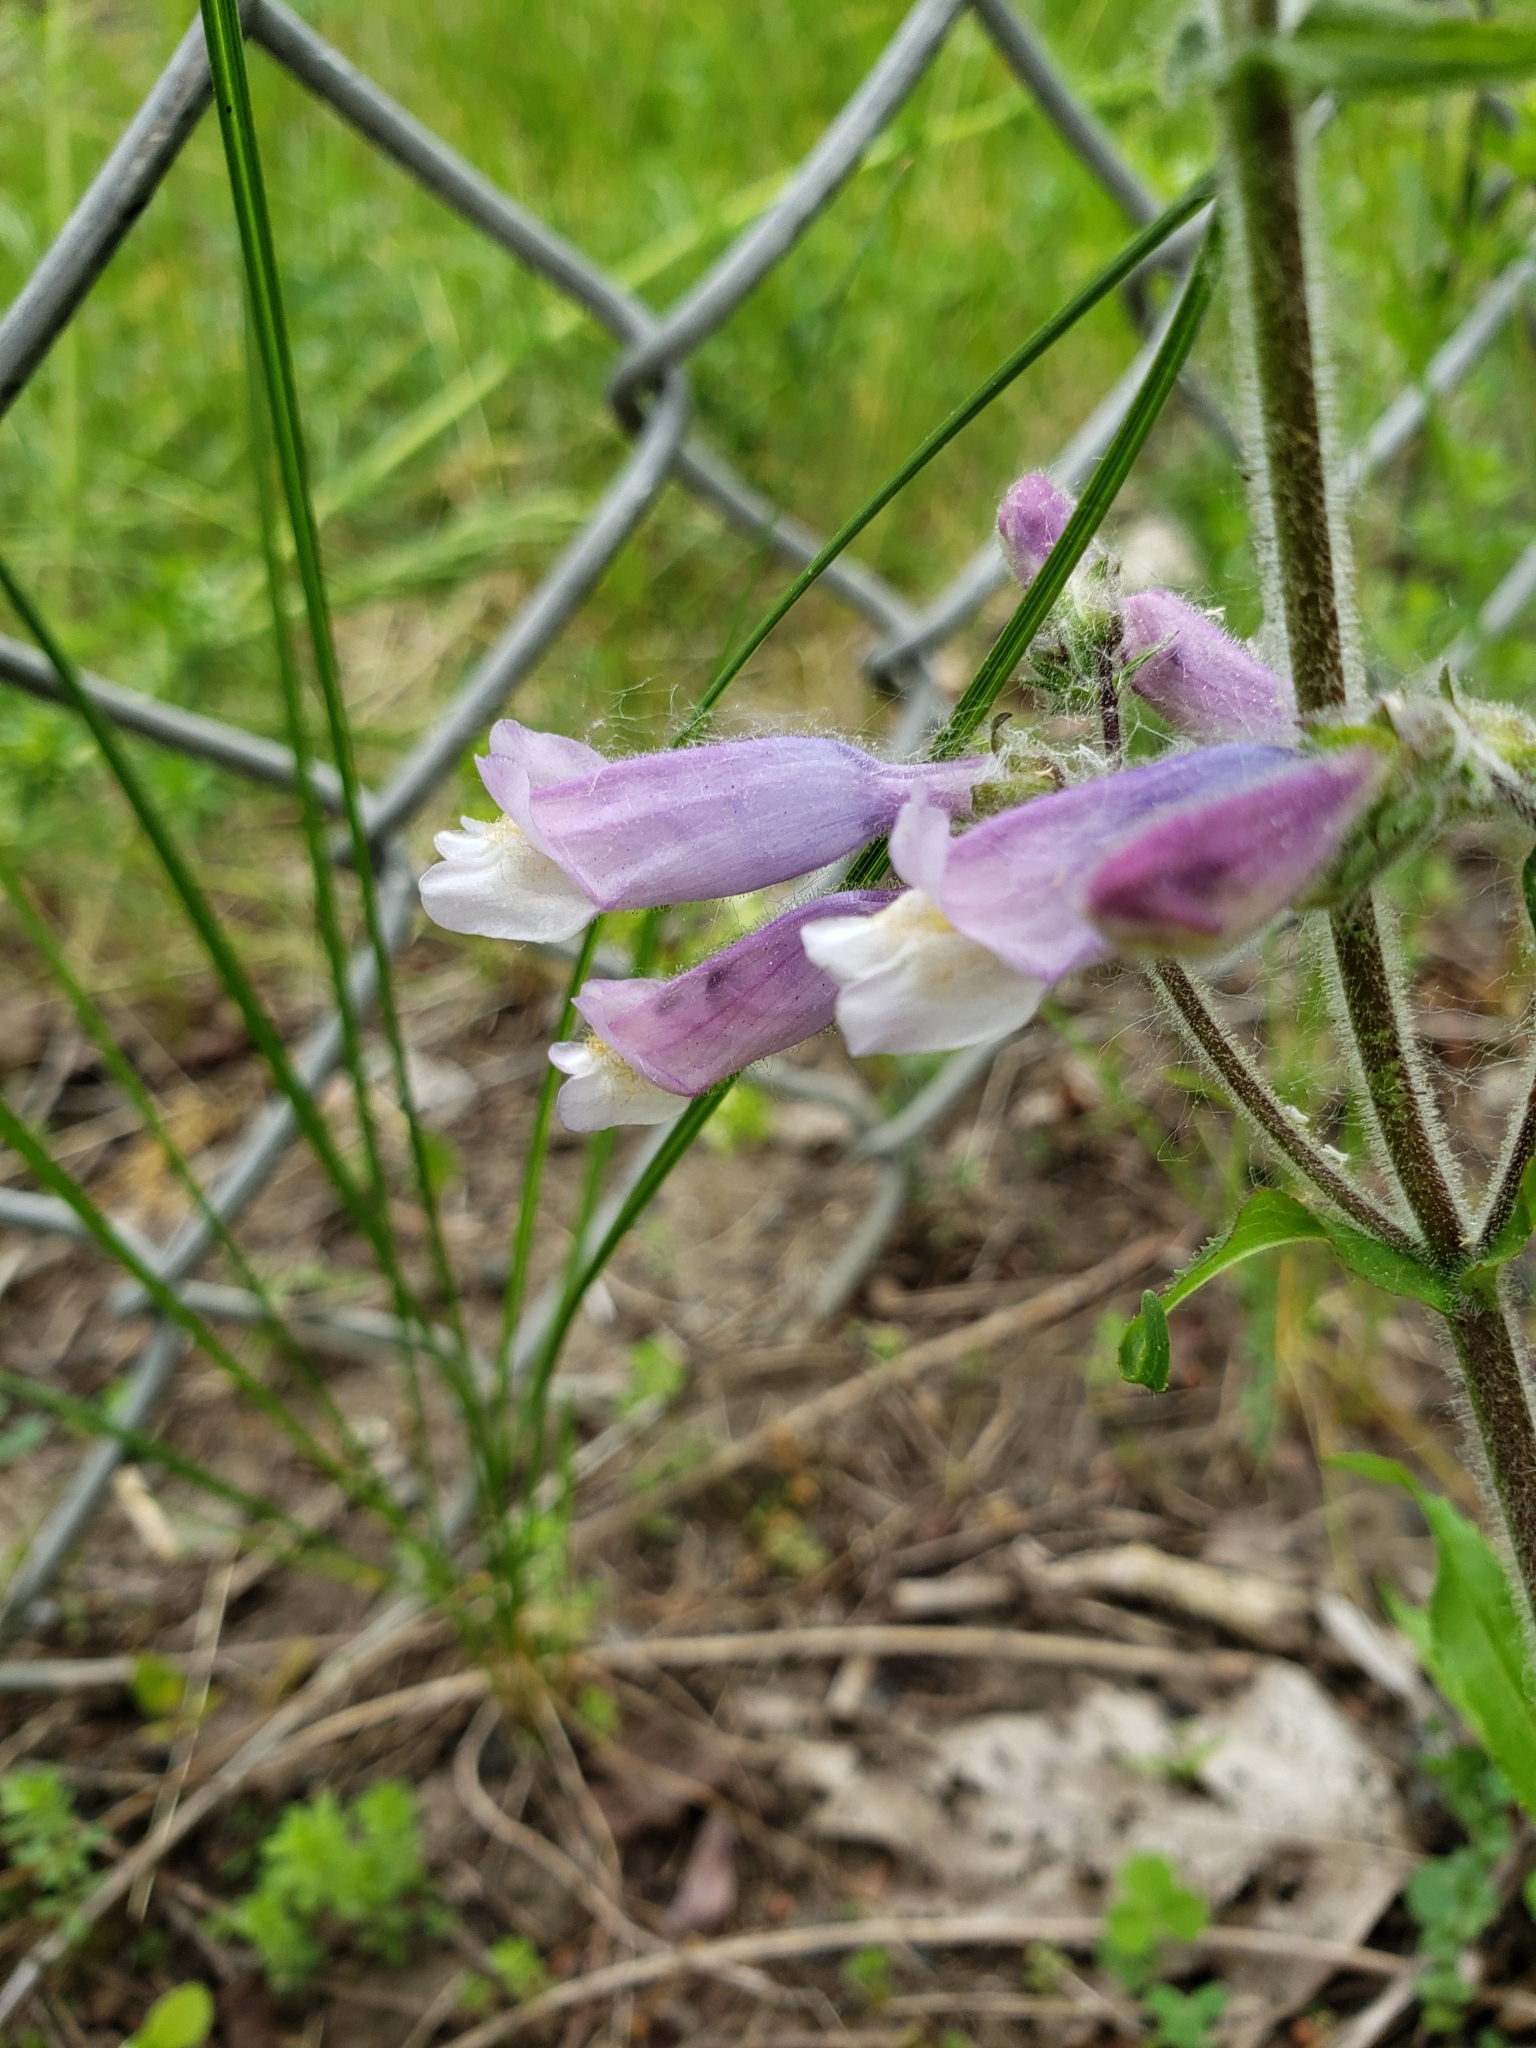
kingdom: Plantae
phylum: Tracheophyta
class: Magnoliopsida
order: Lamiales
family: Plantaginaceae
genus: Penstemon
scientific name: Penstemon hirsutus
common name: Hairy beardtongue
